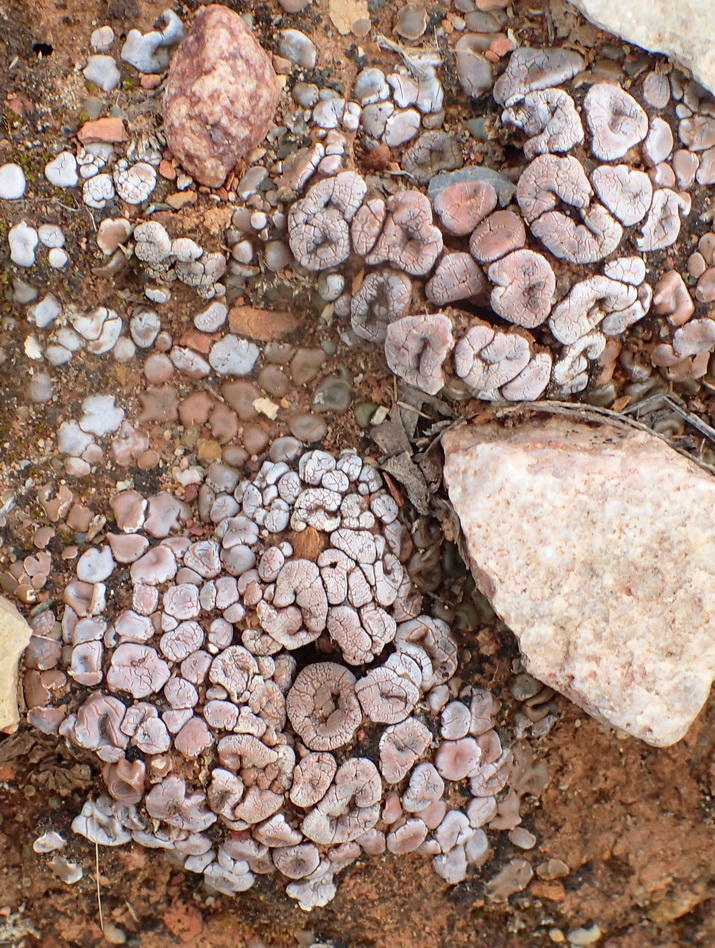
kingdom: Fungi
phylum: Ascomycota
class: Lecanoromycetes
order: Lecanorales
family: Psoraceae
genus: Psora
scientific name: Psora crenata
